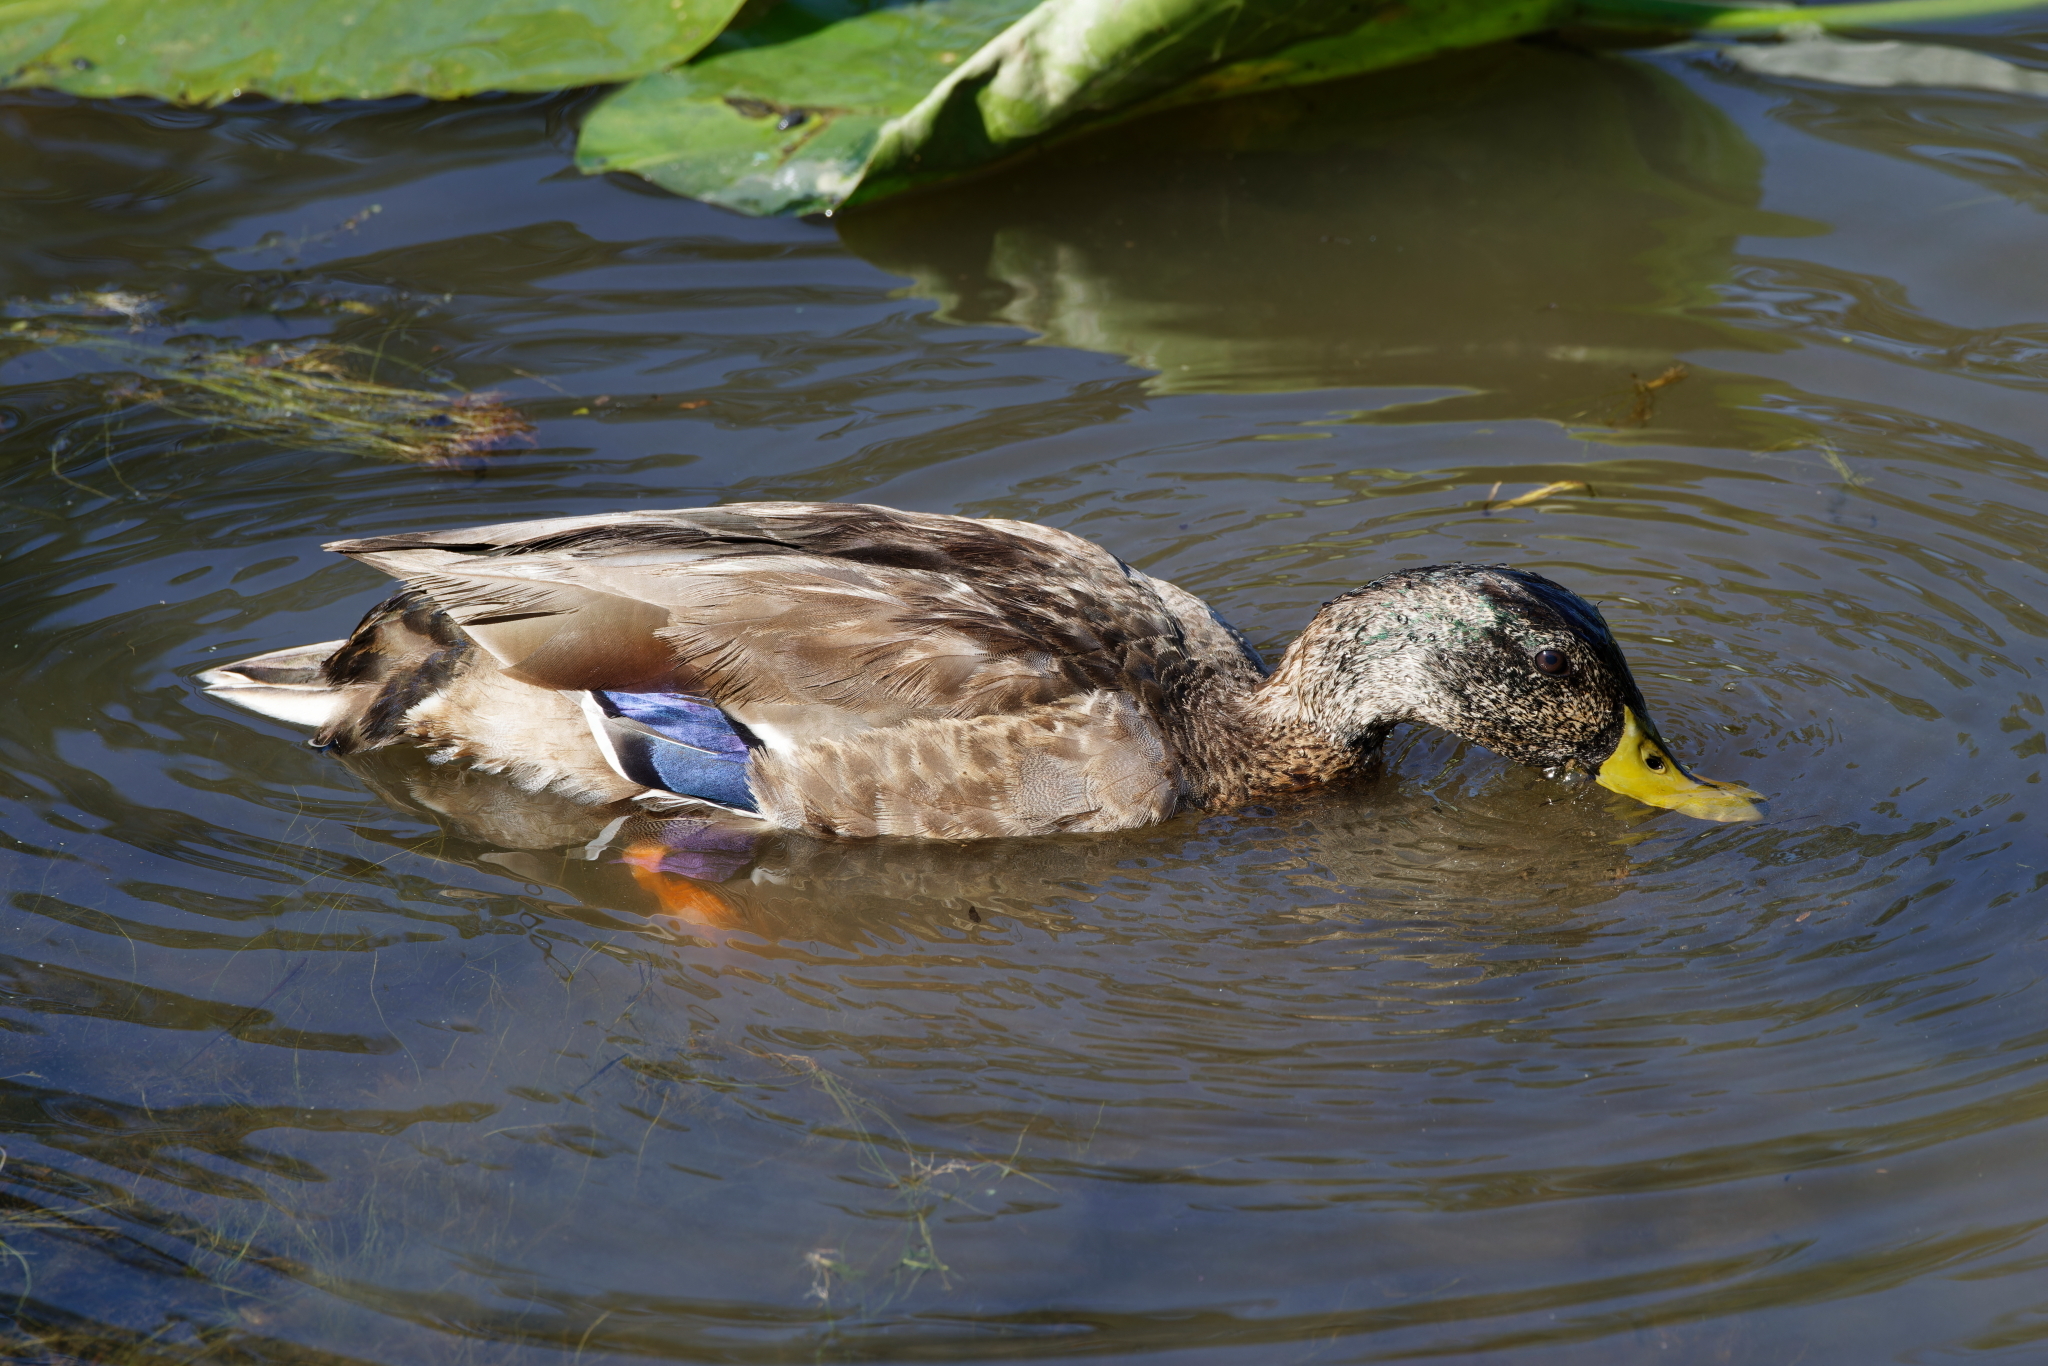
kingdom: Animalia
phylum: Chordata
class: Aves
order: Anseriformes
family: Anatidae
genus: Anas
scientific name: Anas platyrhynchos
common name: Mallard
